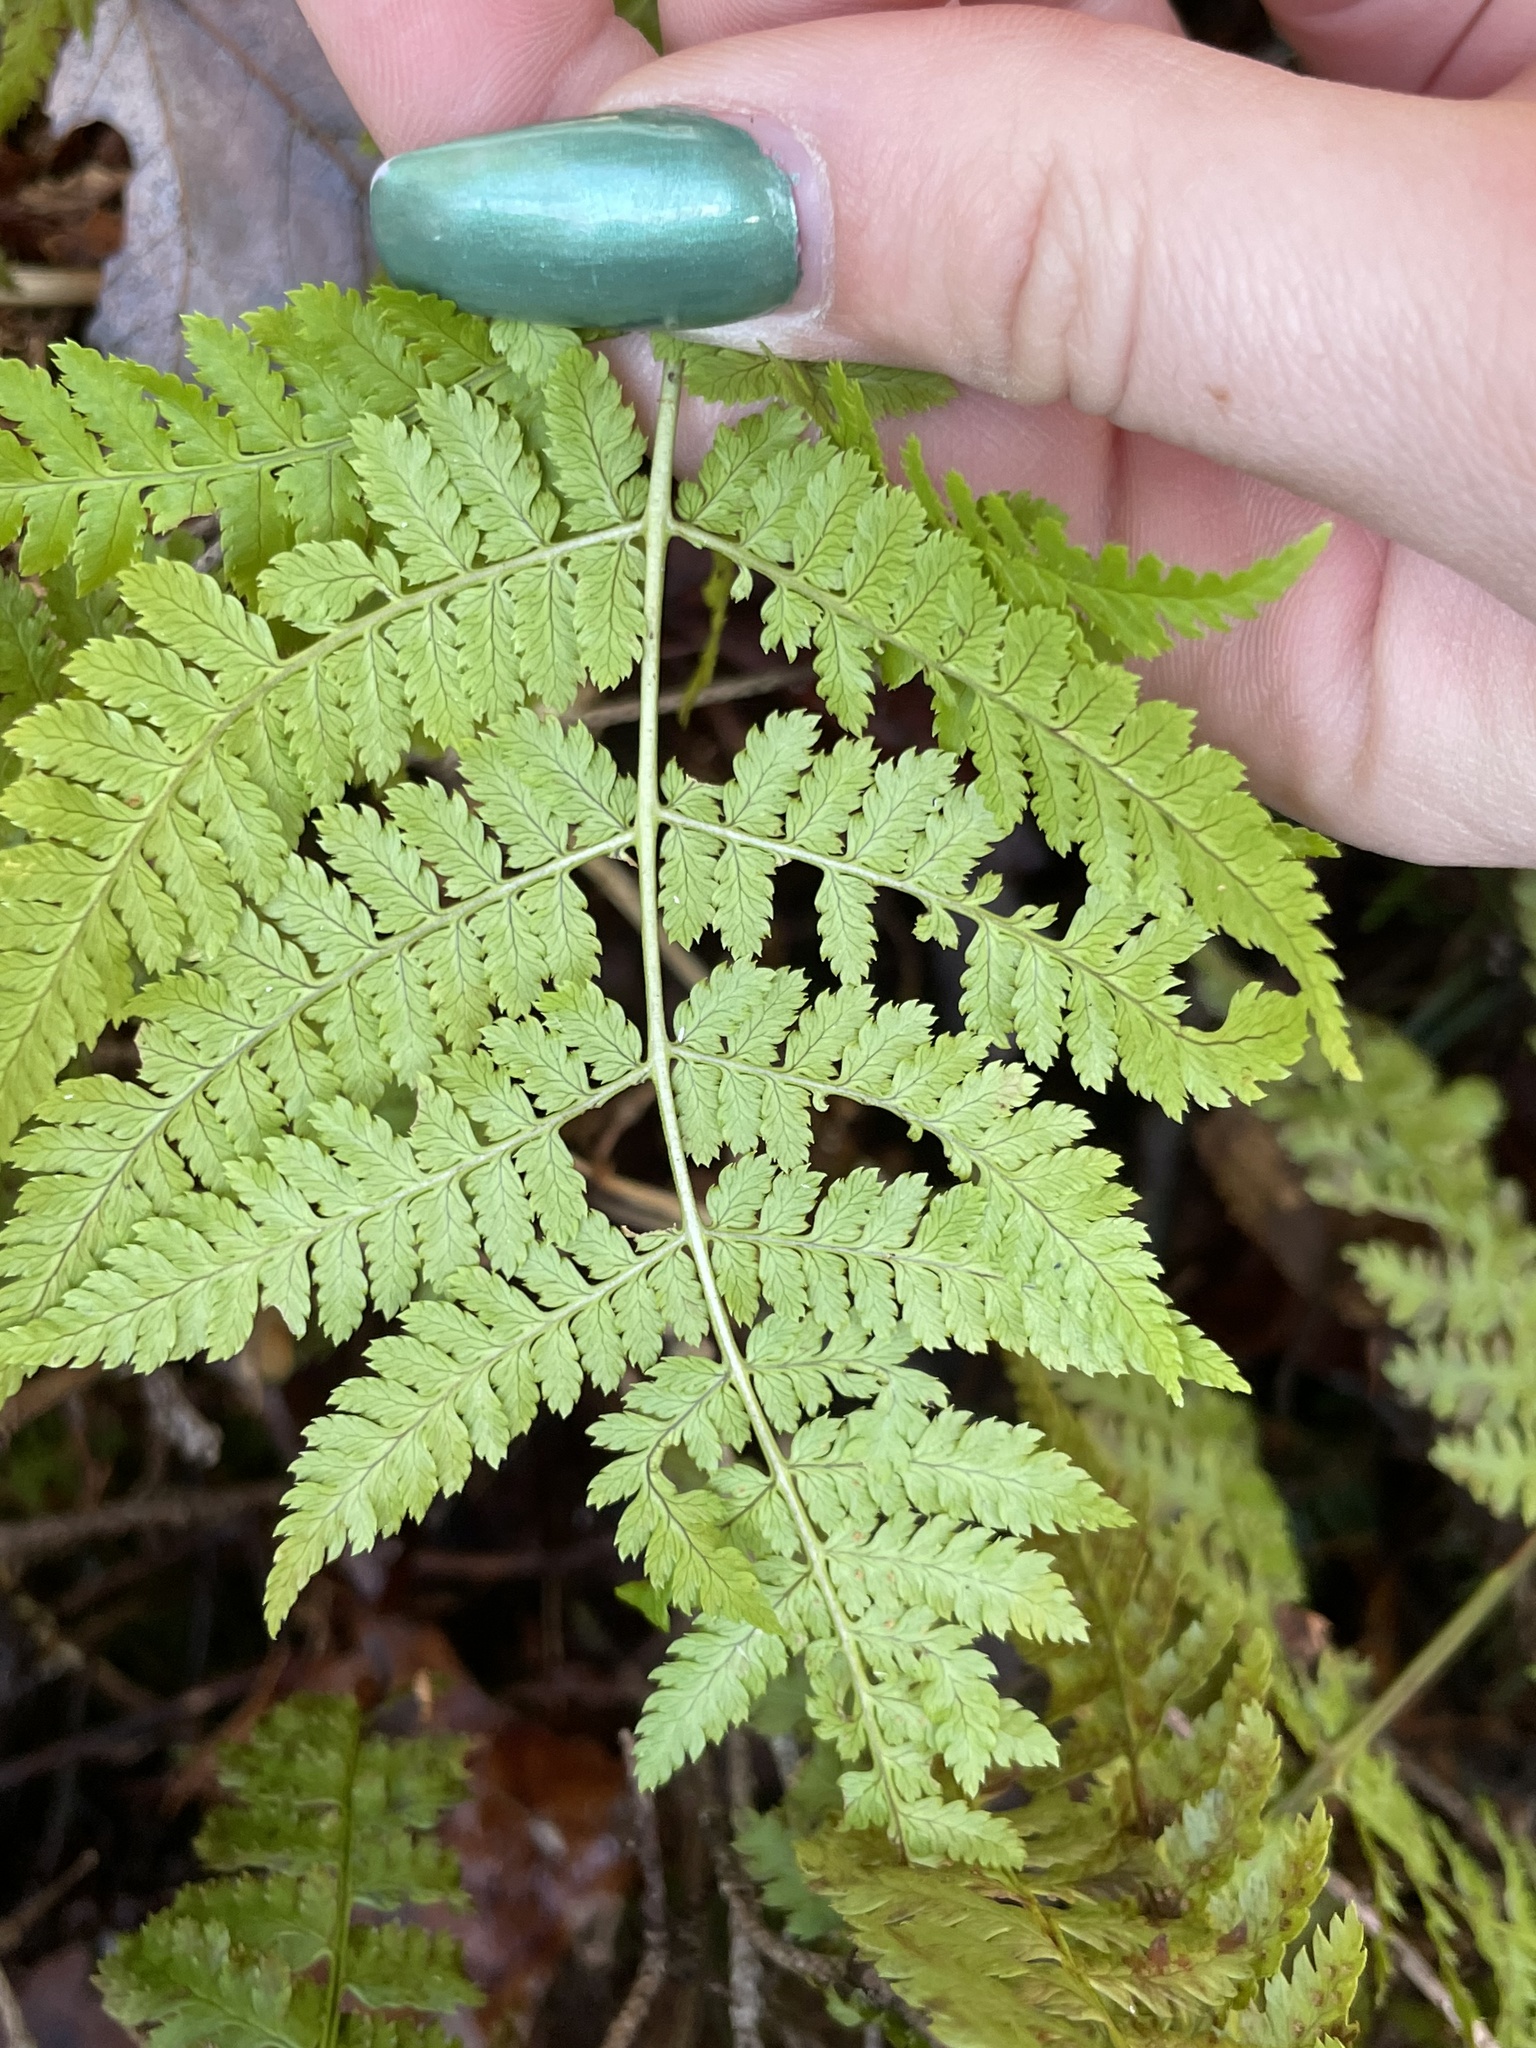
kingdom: Plantae
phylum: Tracheophyta
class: Polypodiopsida
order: Polypodiales
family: Dryopteridaceae
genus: Dryopteris
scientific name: Dryopteris intermedia
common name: Evergreen wood fern
